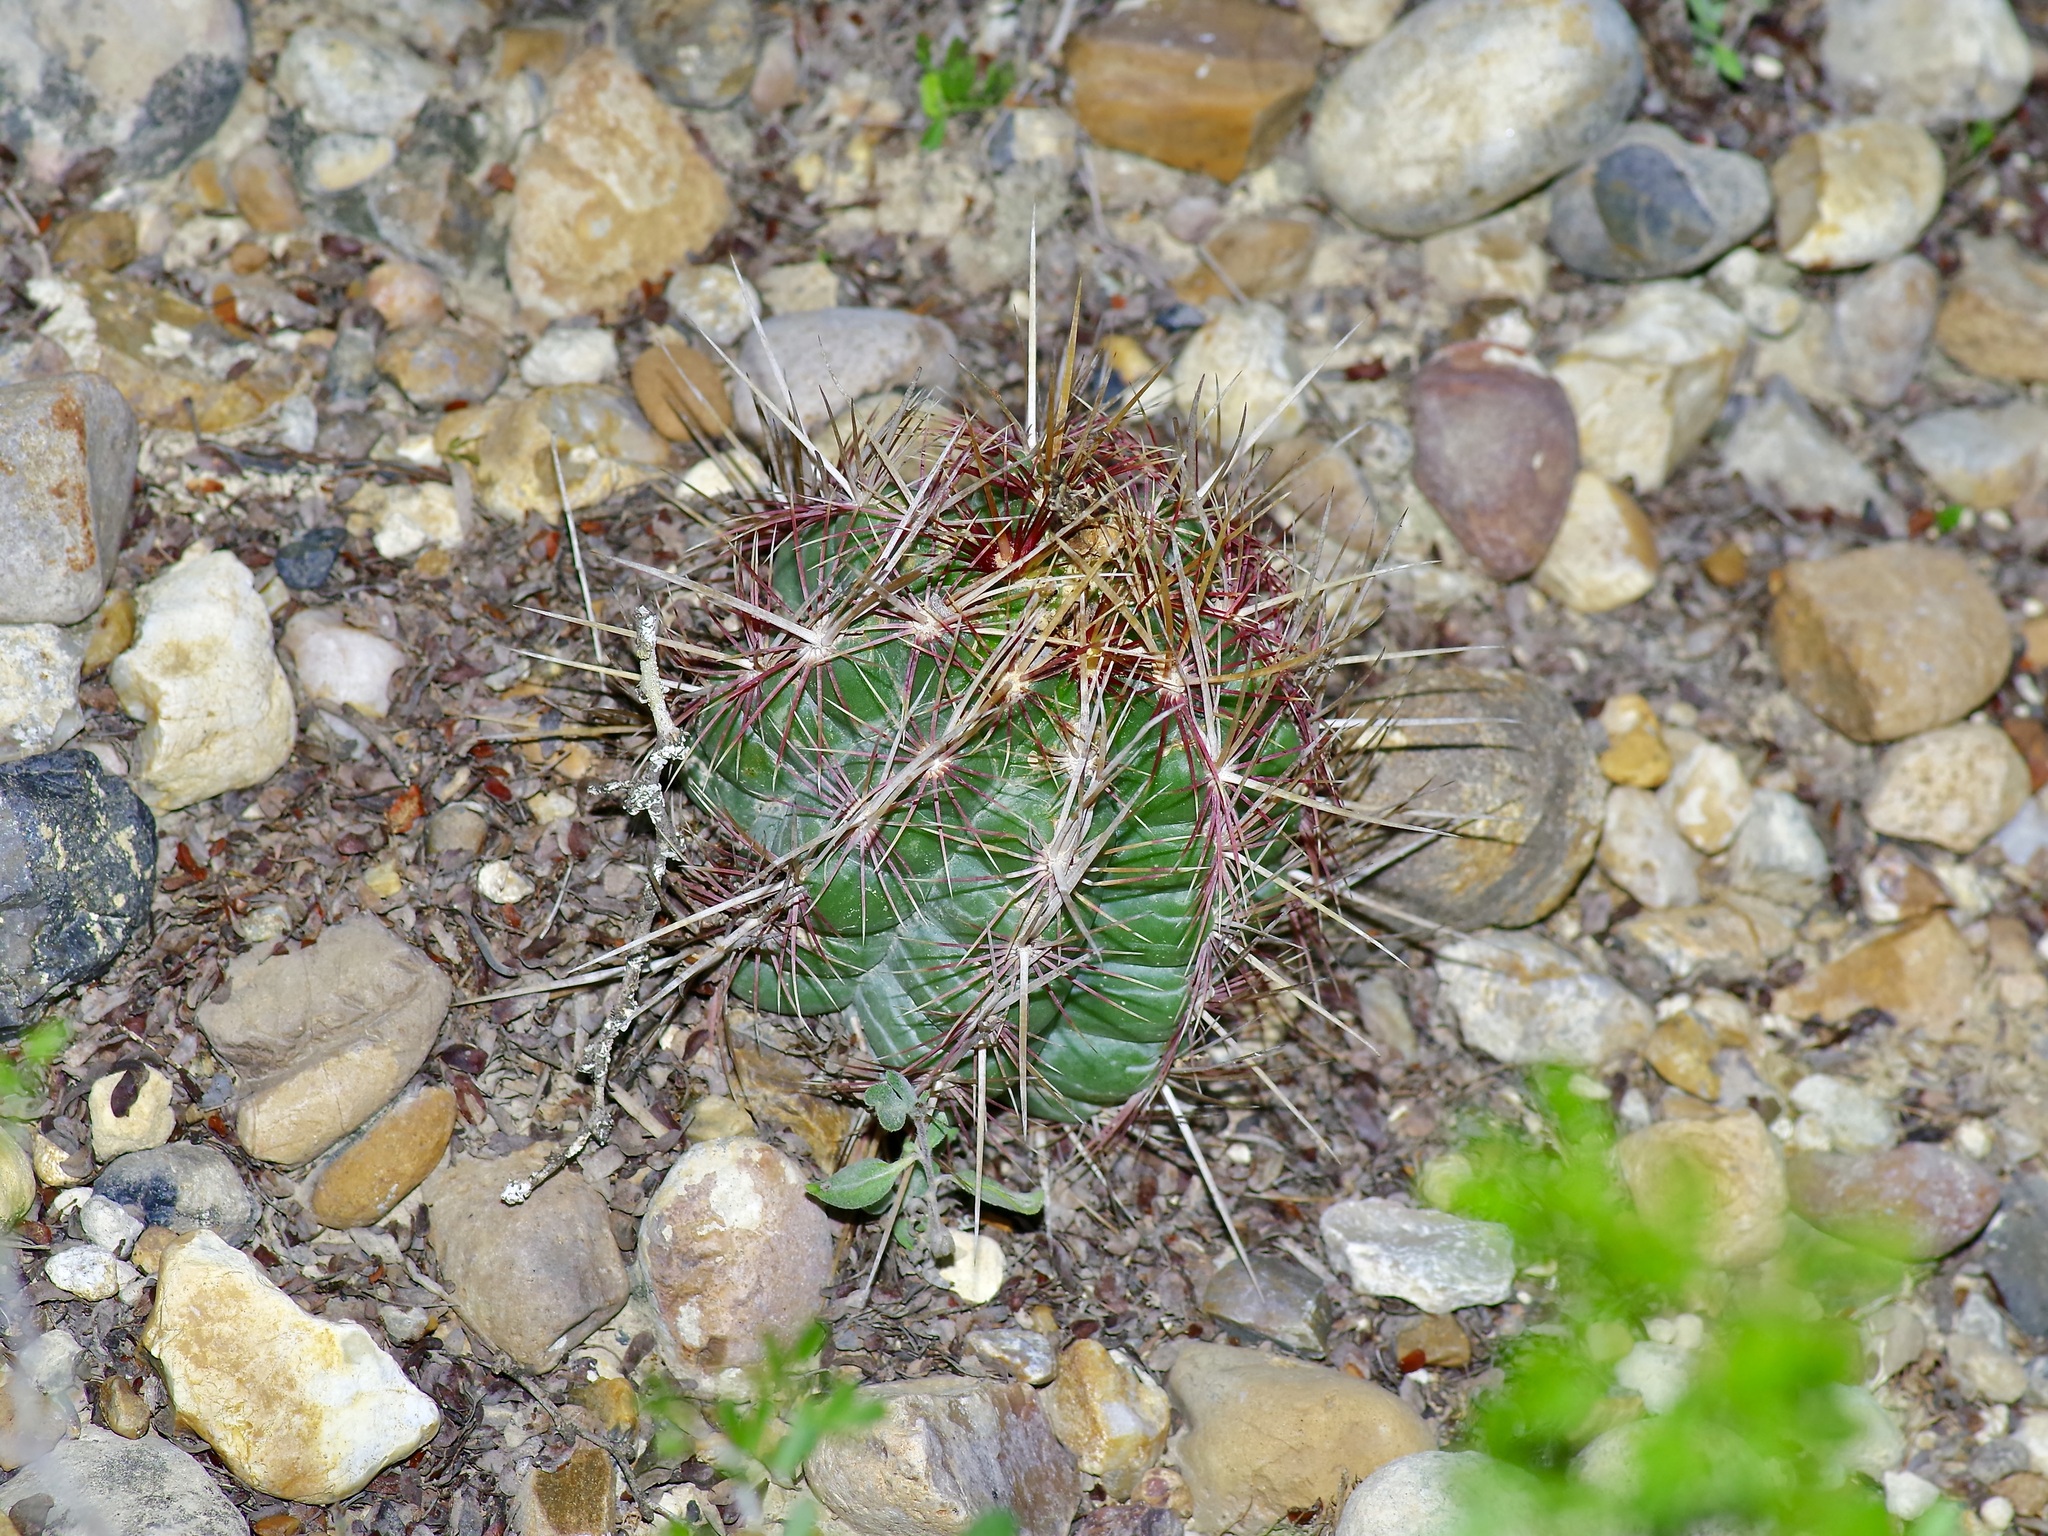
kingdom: Plantae
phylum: Tracheophyta
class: Magnoliopsida
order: Caryophyllales
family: Cactaceae
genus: Thelocactus
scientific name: Thelocactus bicolor
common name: Glory of texas
